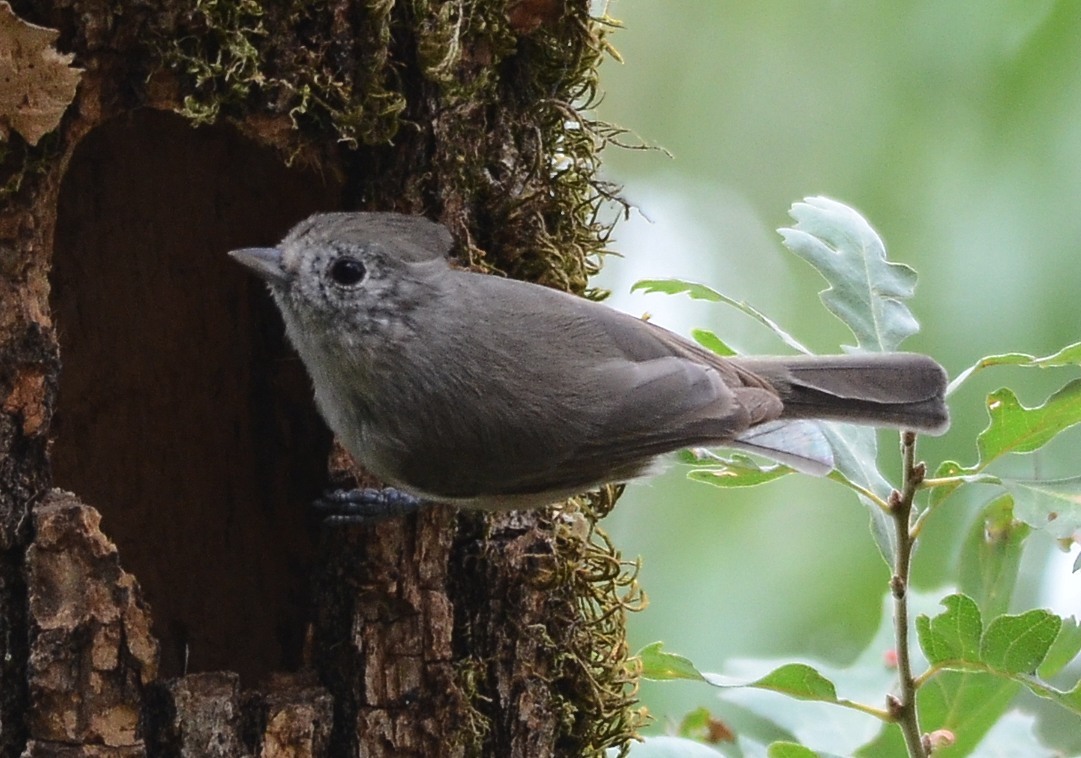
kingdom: Animalia
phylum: Chordata
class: Aves
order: Passeriformes
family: Paridae
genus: Baeolophus
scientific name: Baeolophus inornatus
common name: Oak titmouse
